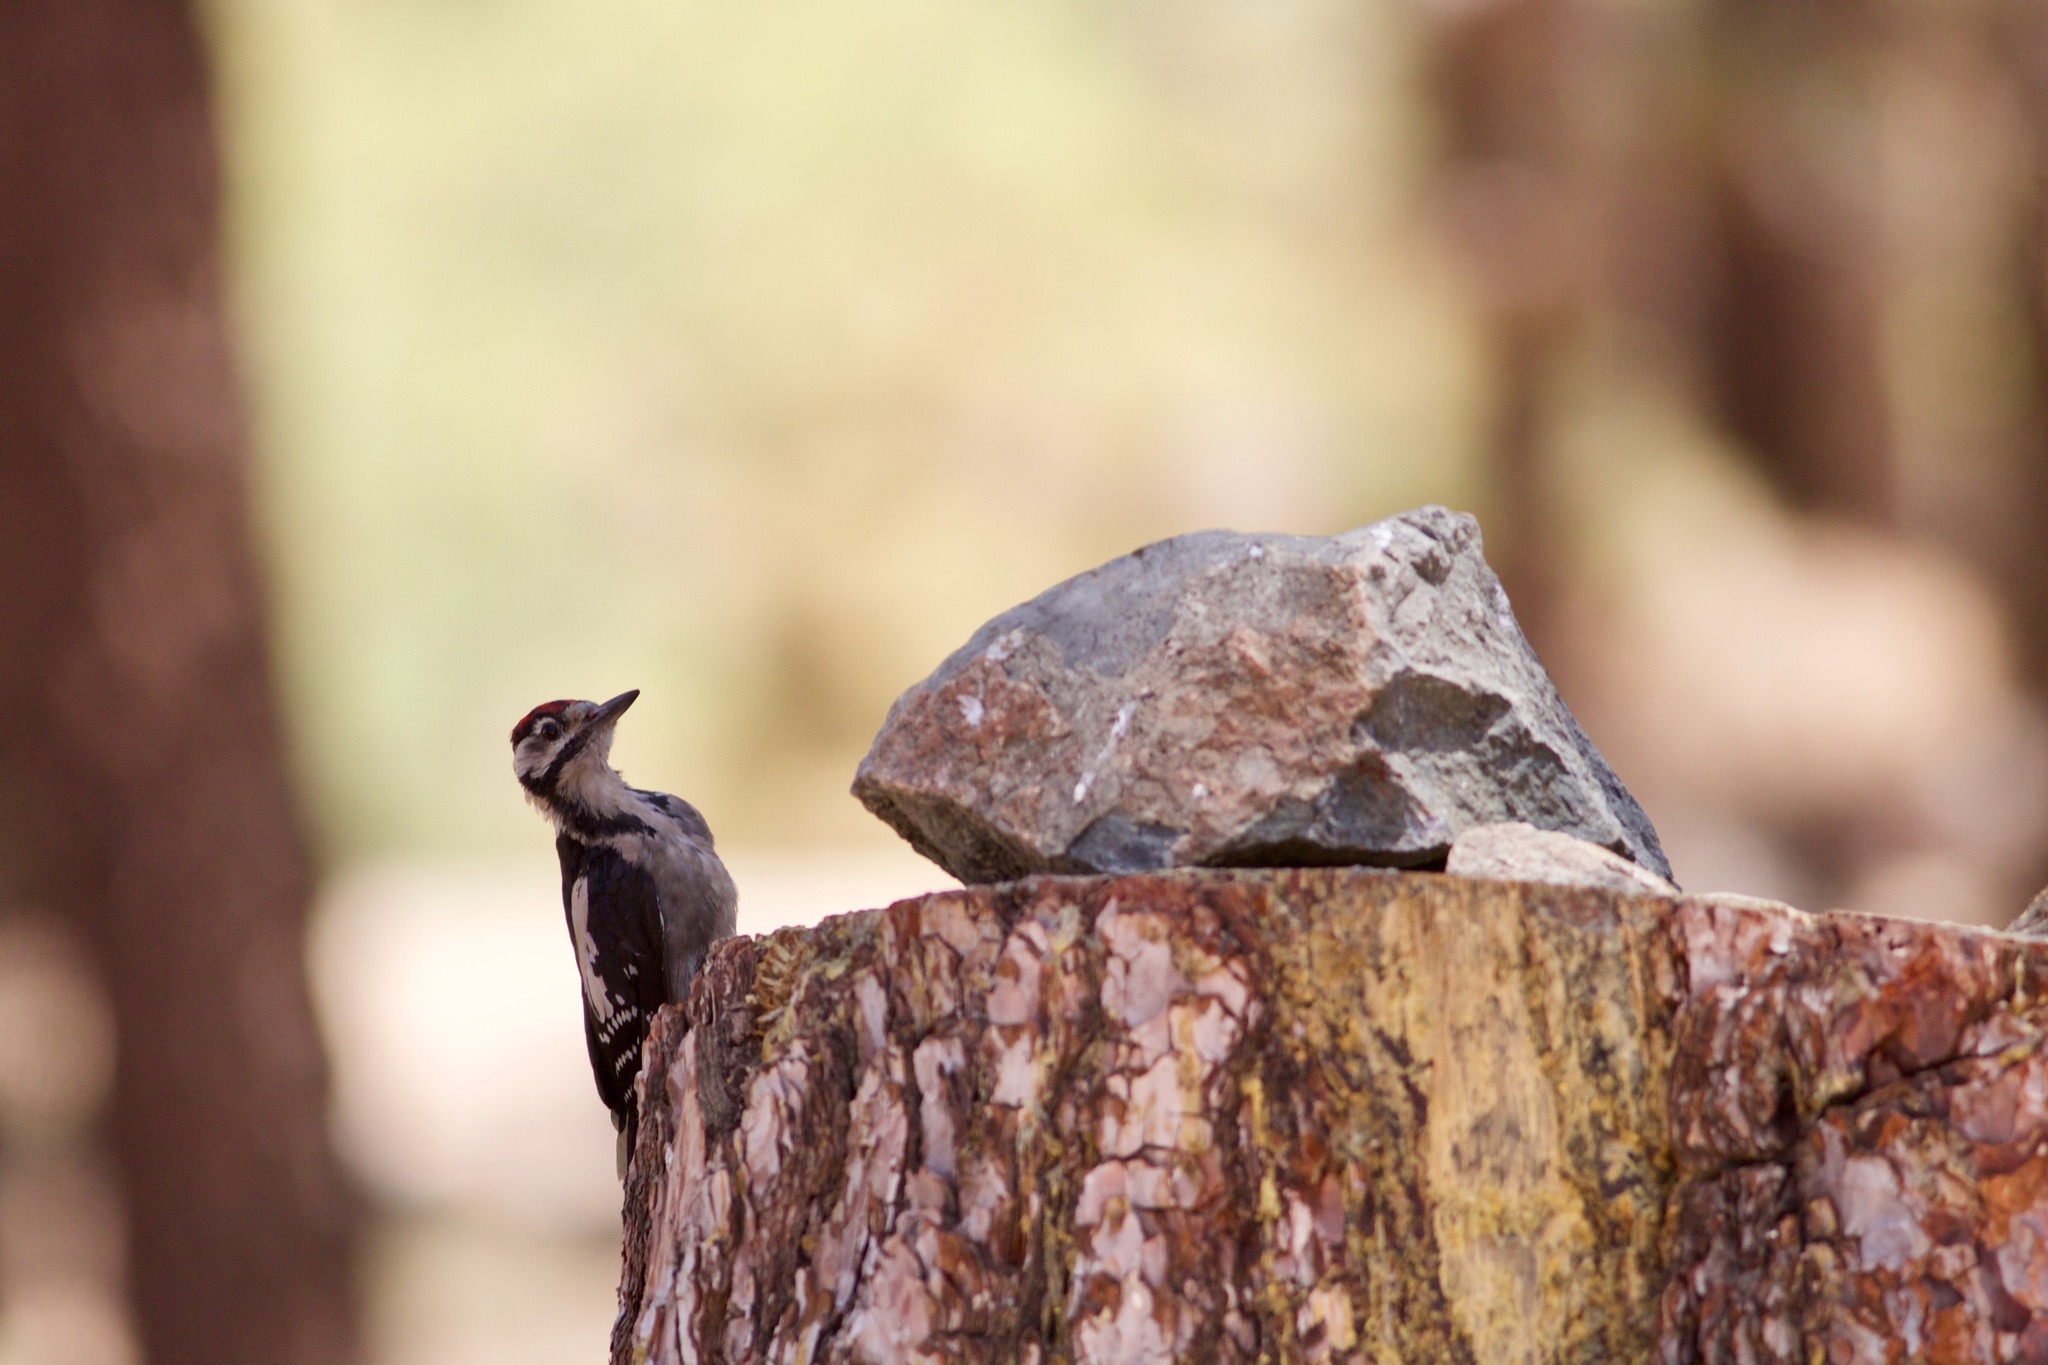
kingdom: Animalia
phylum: Chordata
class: Aves
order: Piciformes
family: Picidae
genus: Dendrocopos
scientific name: Dendrocopos major
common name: Great spotted woodpecker
